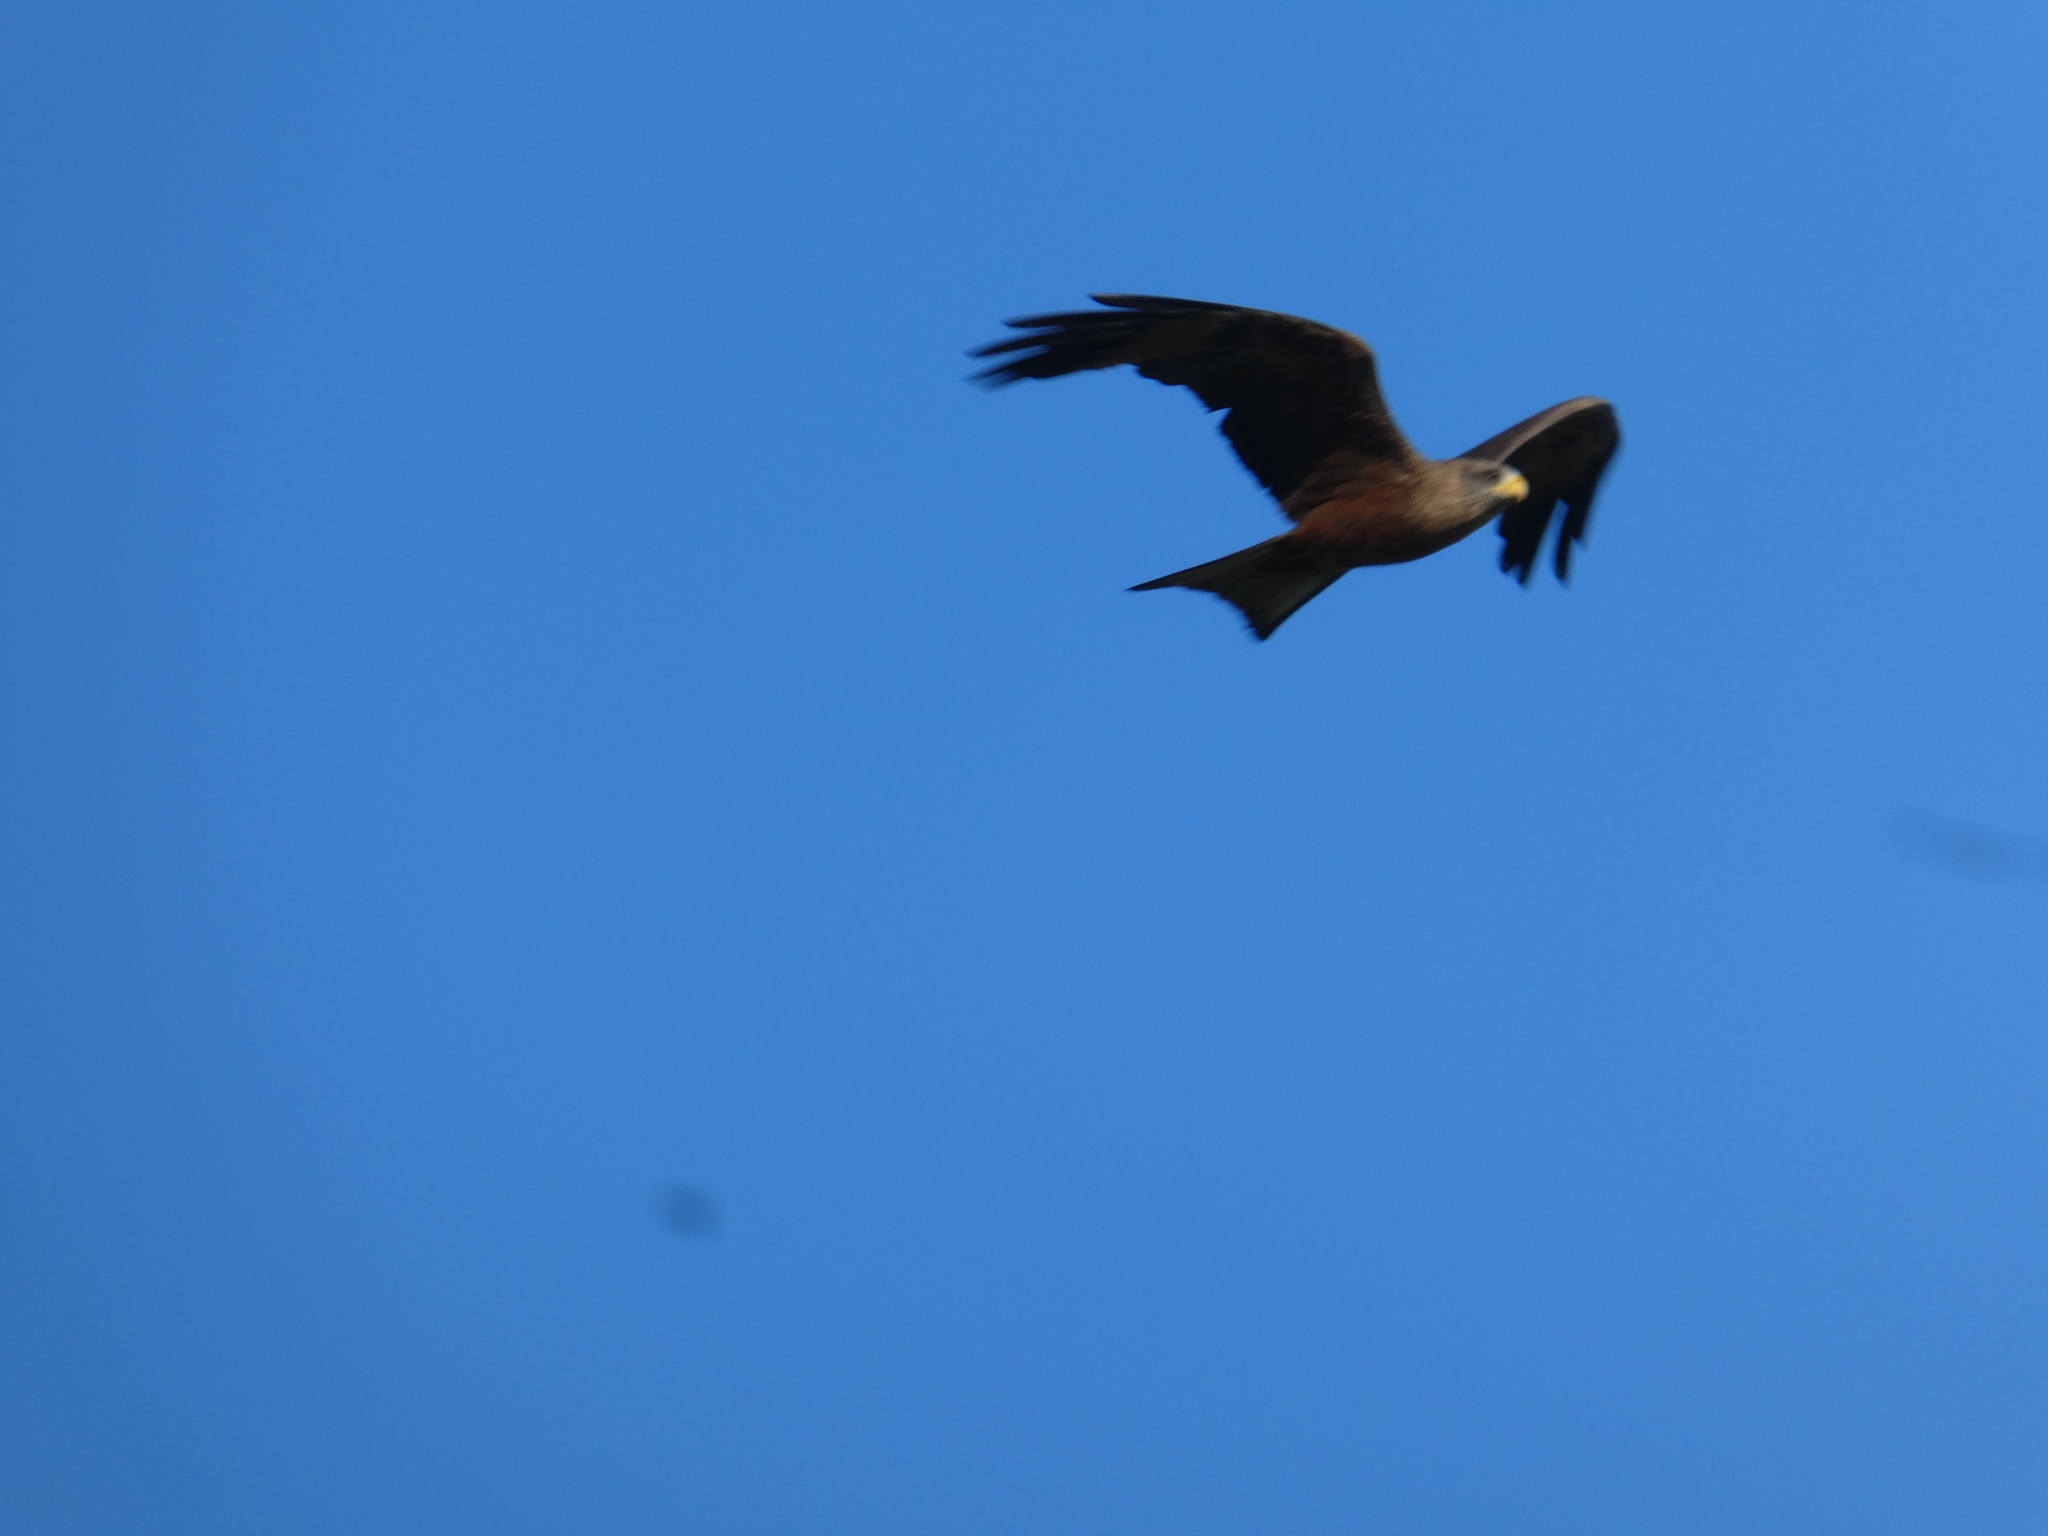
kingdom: Animalia
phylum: Chordata
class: Aves
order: Accipitriformes
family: Accipitridae
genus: Milvus
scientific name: Milvus migrans
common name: Black kite
